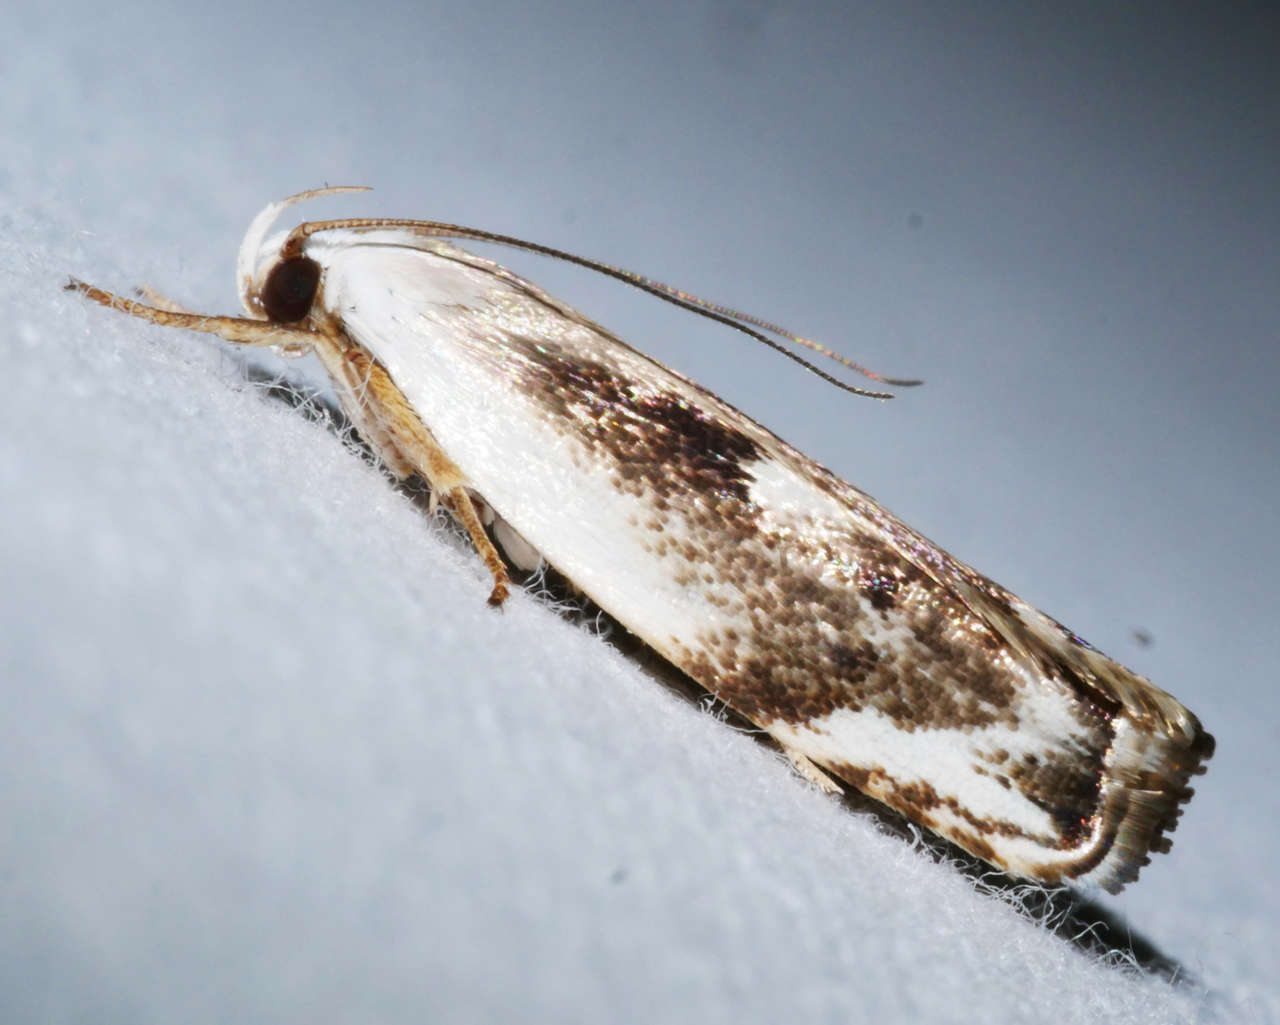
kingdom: Animalia
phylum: Arthropoda
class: Insecta
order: Lepidoptera
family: Xyloryctidae
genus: Plectophila
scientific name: Plectophila discalis
